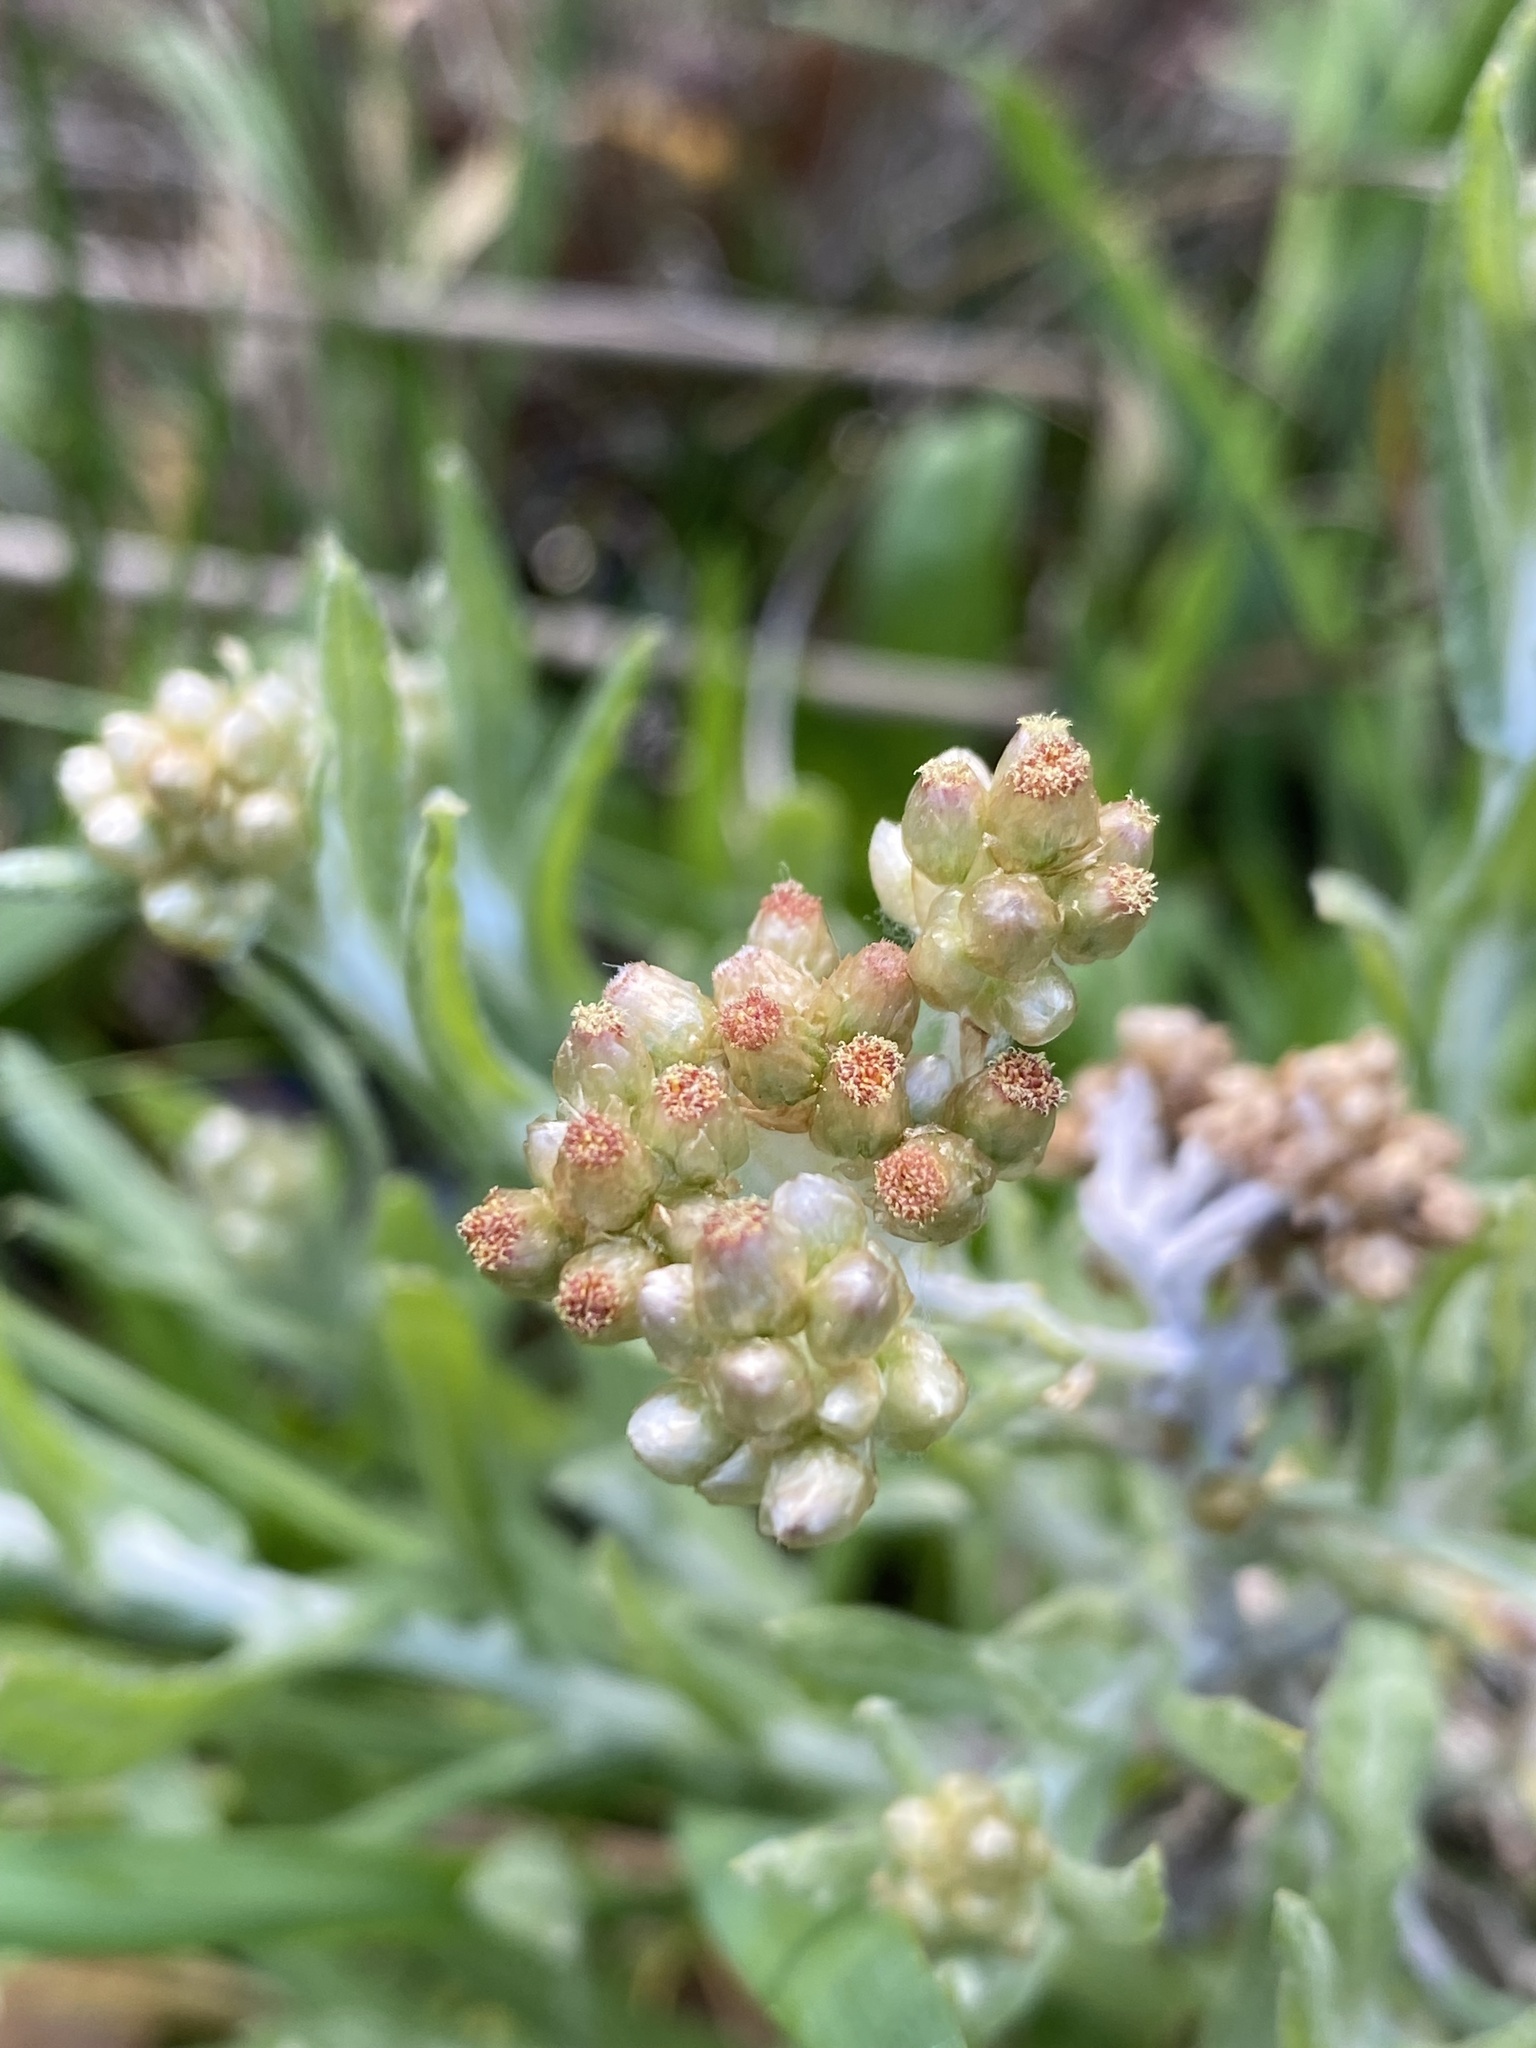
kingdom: Plantae
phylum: Tracheophyta
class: Magnoliopsida
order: Asterales
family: Asteraceae
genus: Helichrysum
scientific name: Helichrysum luteoalbum
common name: Daisy
